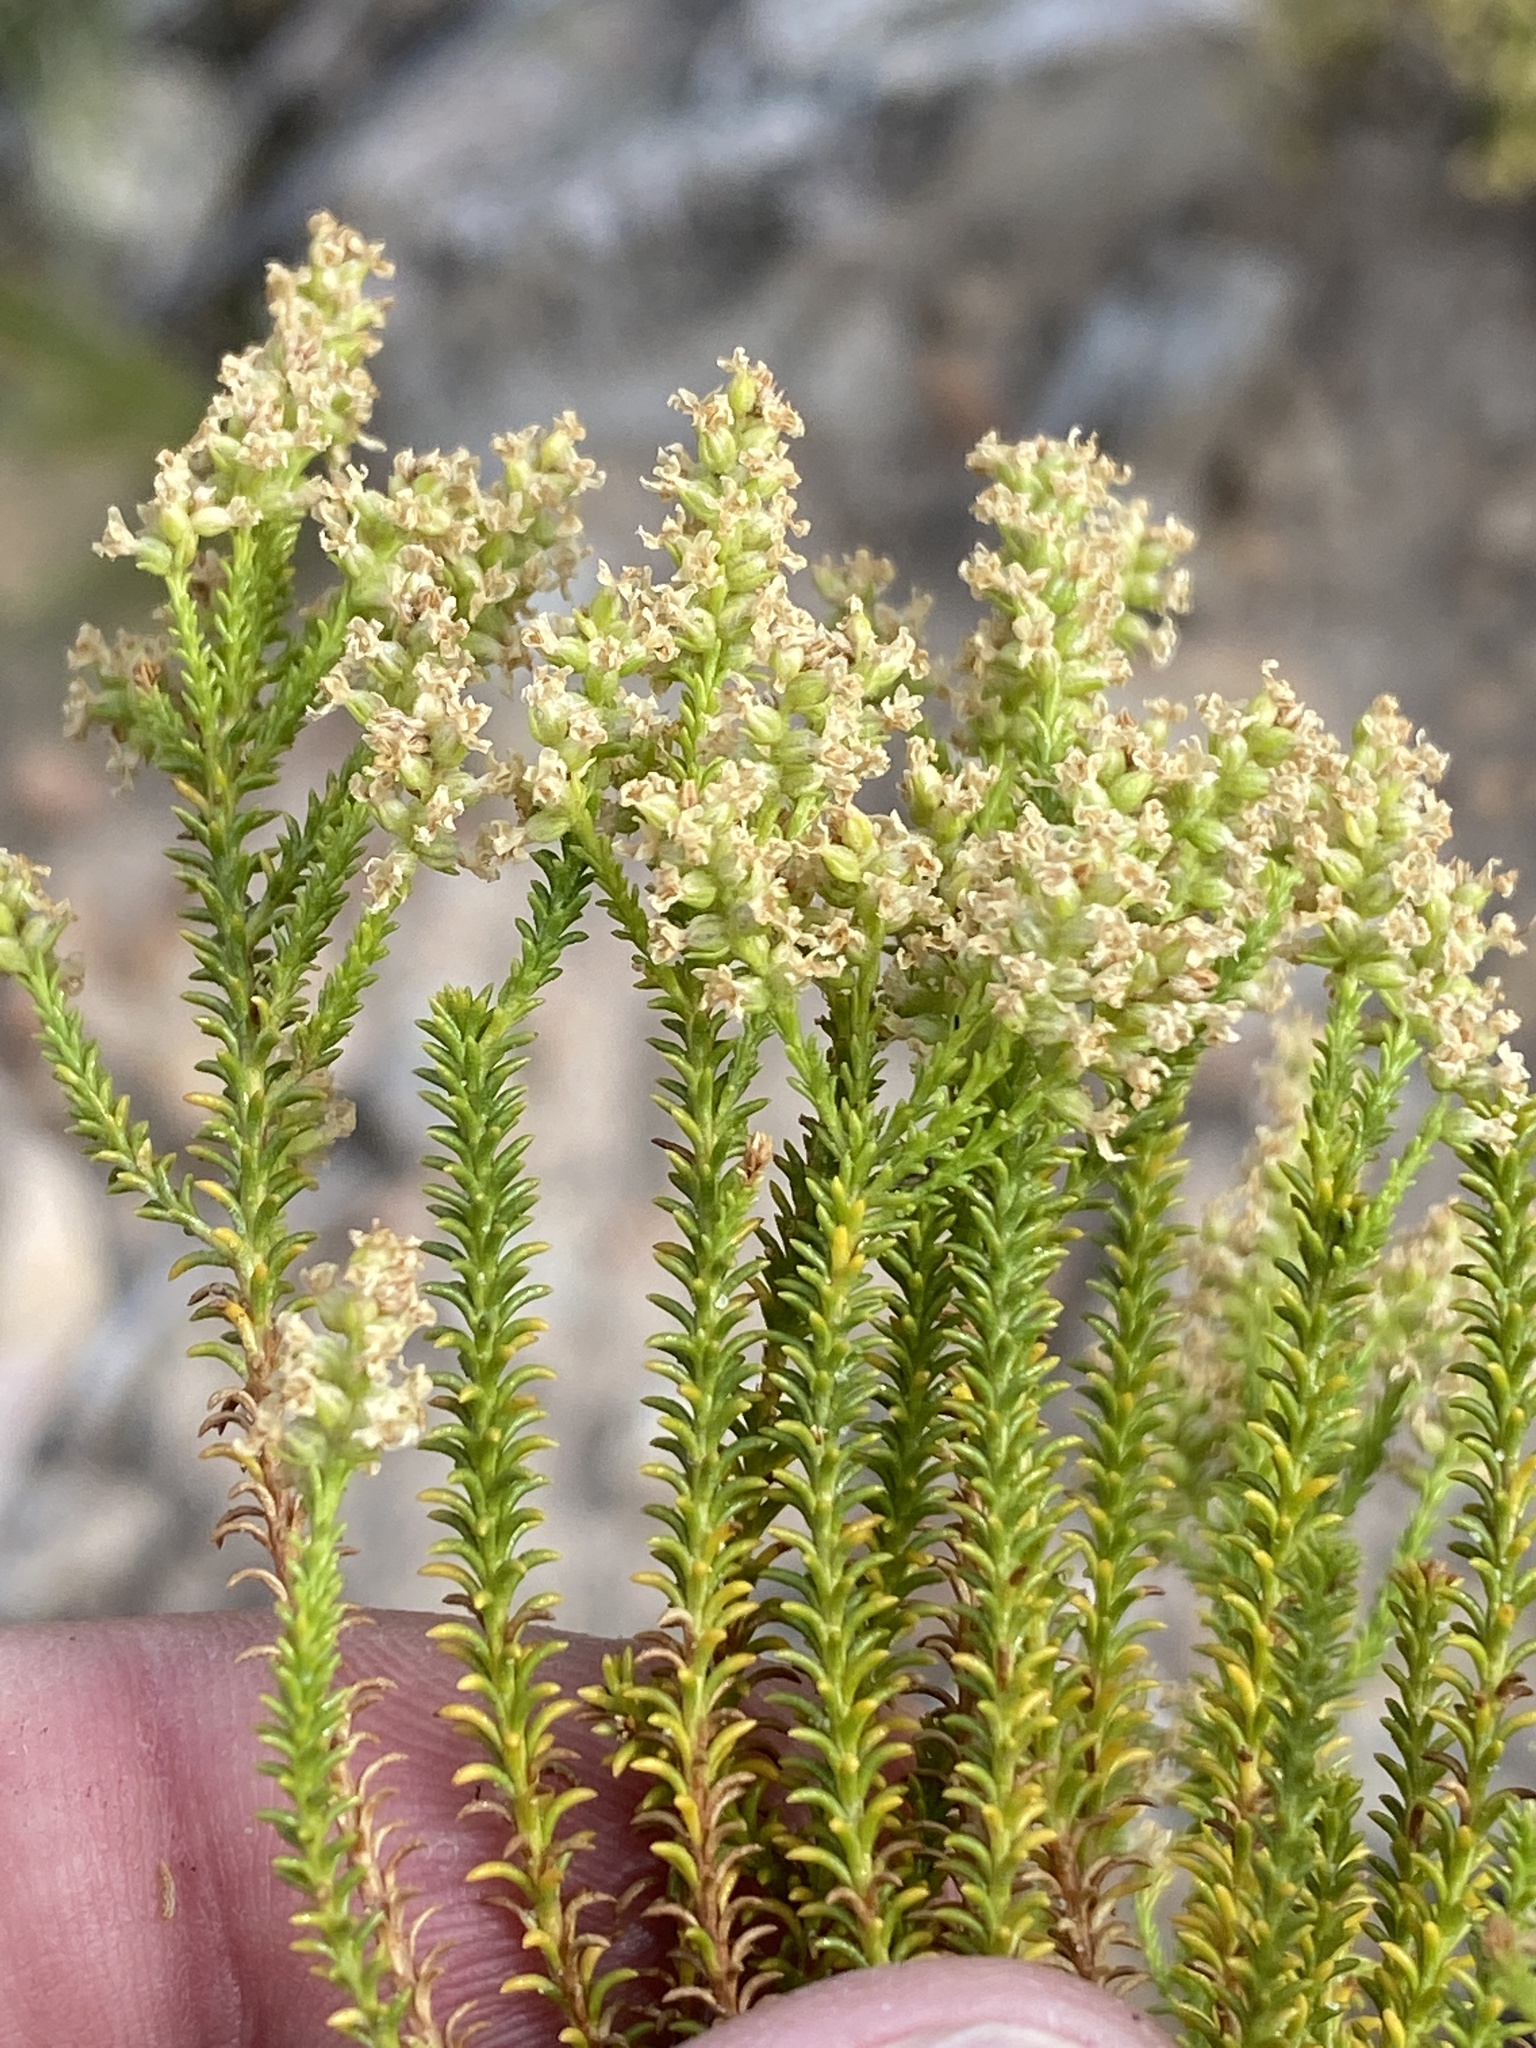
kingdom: Plantae
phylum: Tracheophyta
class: Magnoliopsida
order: Lamiales
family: Scrophulariaceae
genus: Selago
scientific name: Selago triquetra
